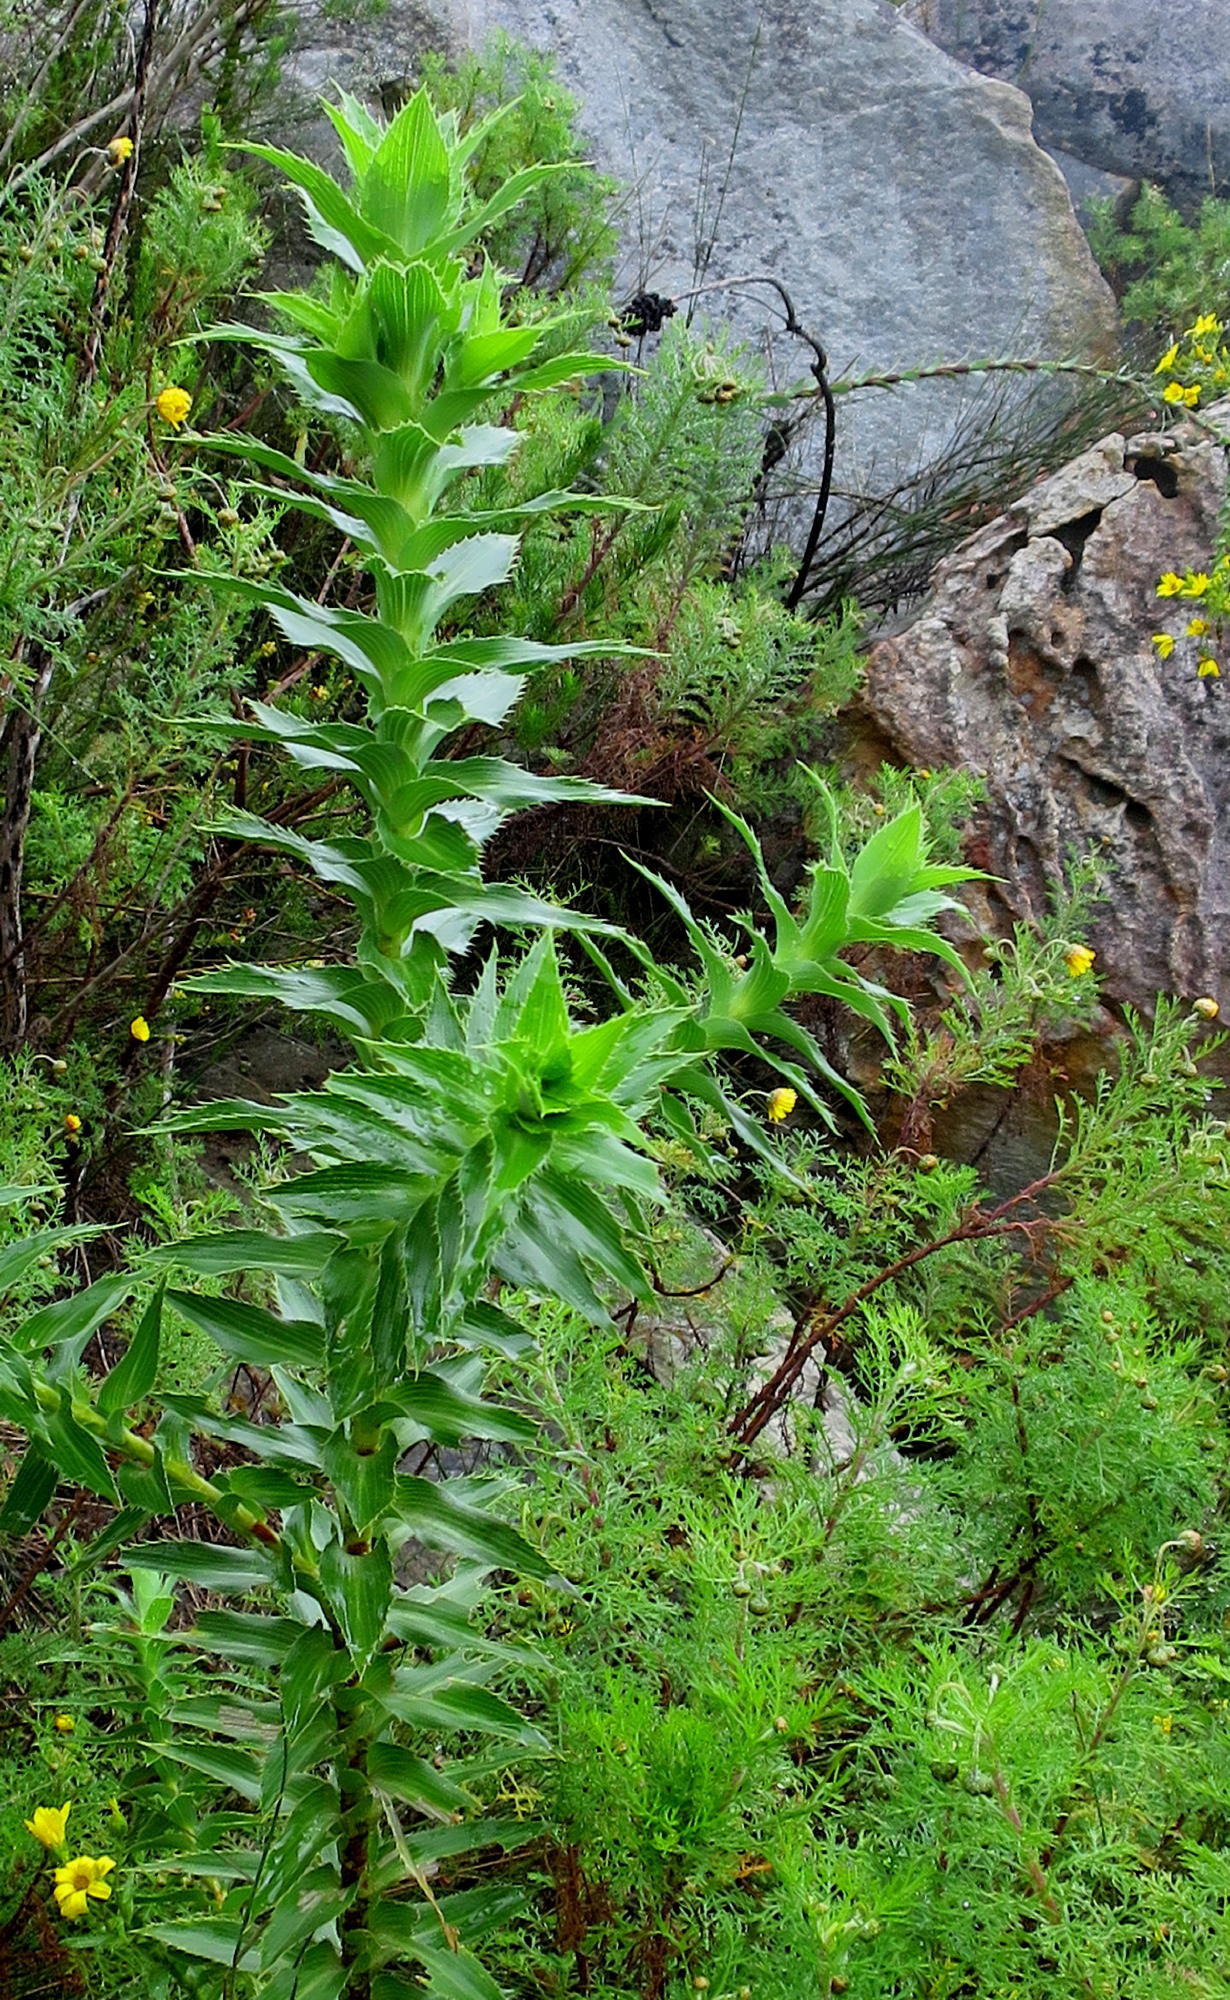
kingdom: Plantae
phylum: Tracheophyta
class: Magnoliopsida
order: Rosales
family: Rosaceae
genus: Cliffortia
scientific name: Cliffortia grandifolia
